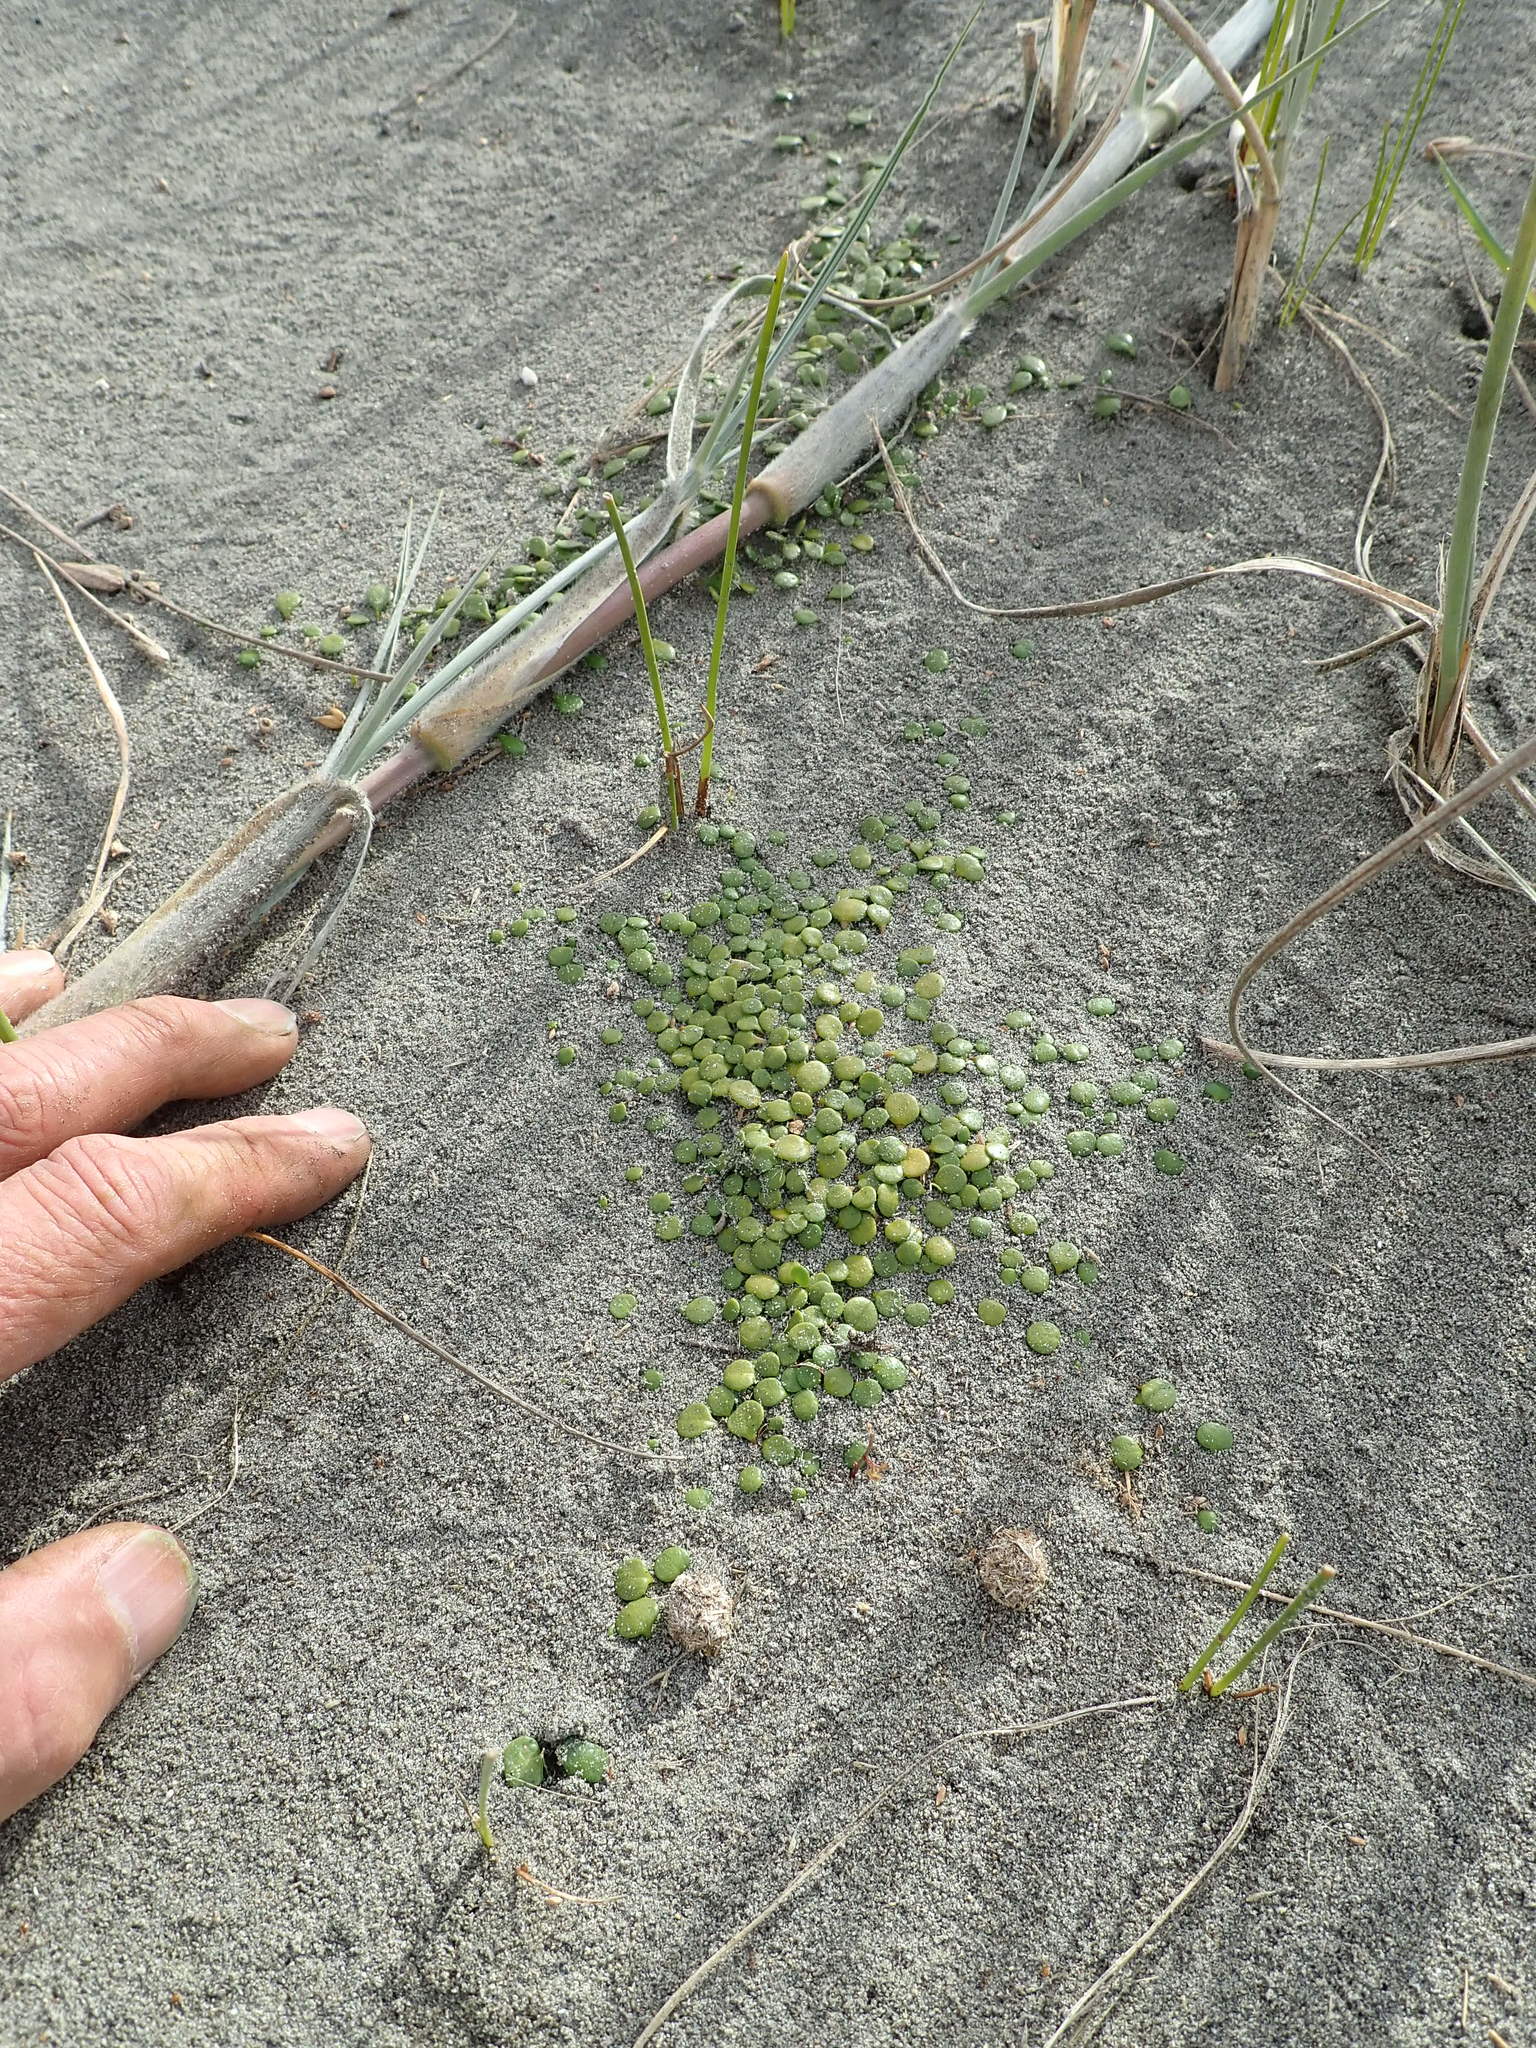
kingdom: Plantae
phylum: Tracheophyta
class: Magnoliopsida
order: Asterales
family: Goodeniaceae
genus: Goodenia
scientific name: Goodenia heenanii
